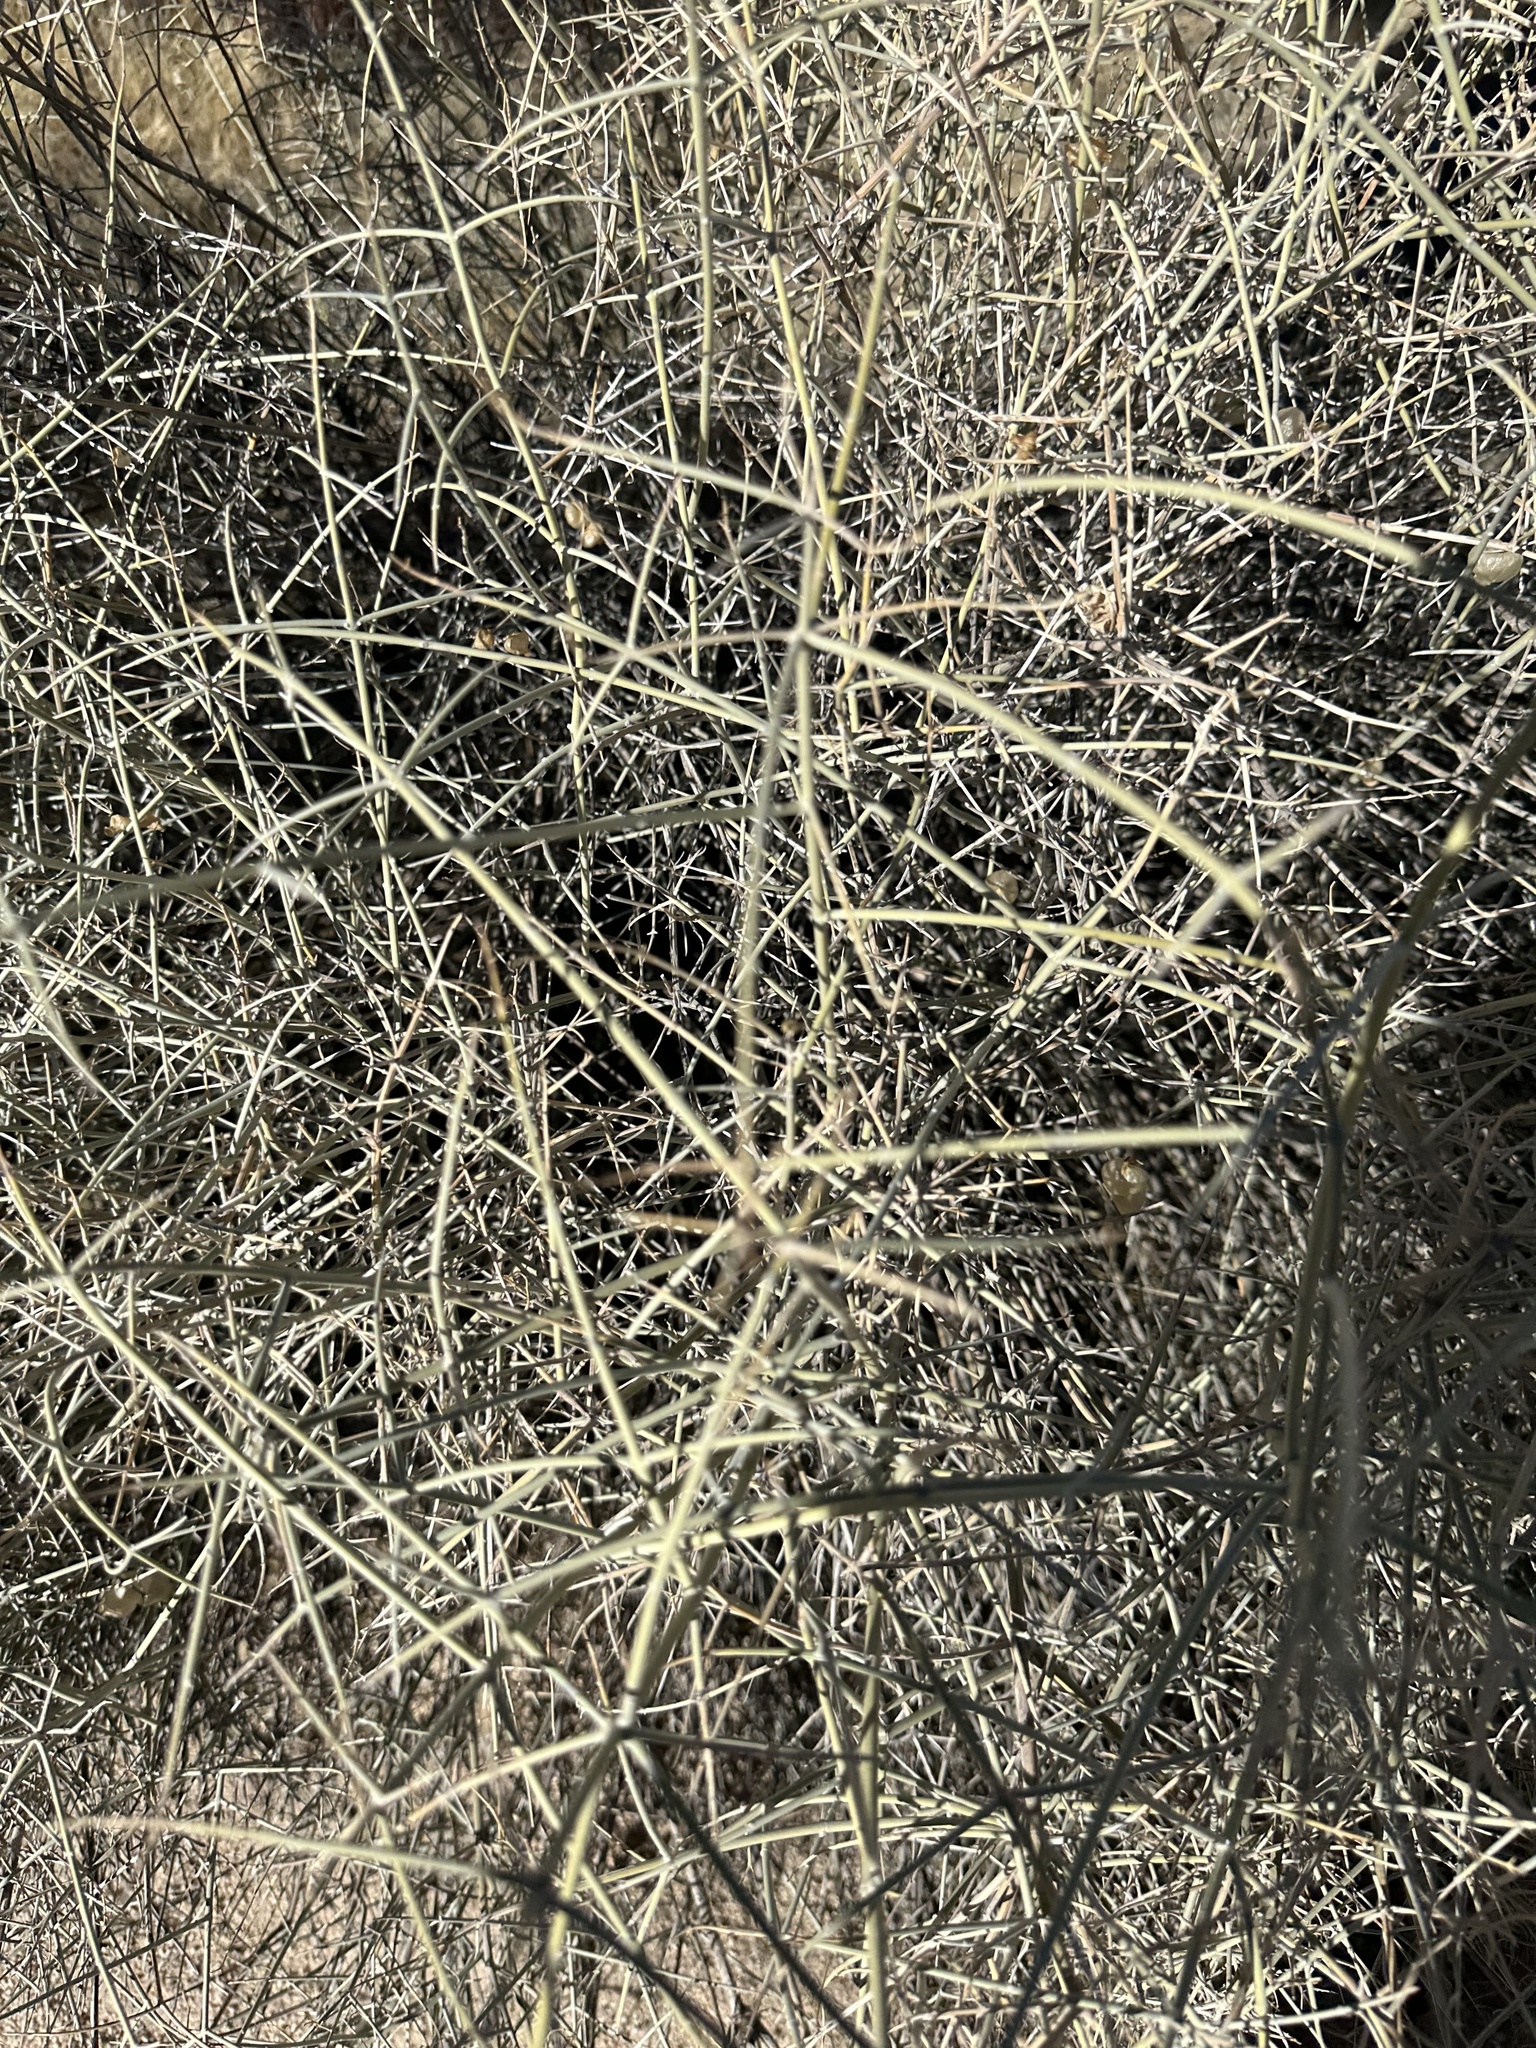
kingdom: Plantae
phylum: Tracheophyta
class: Magnoliopsida
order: Lamiales
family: Lamiaceae
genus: Scutellaria
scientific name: Scutellaria mexicana
